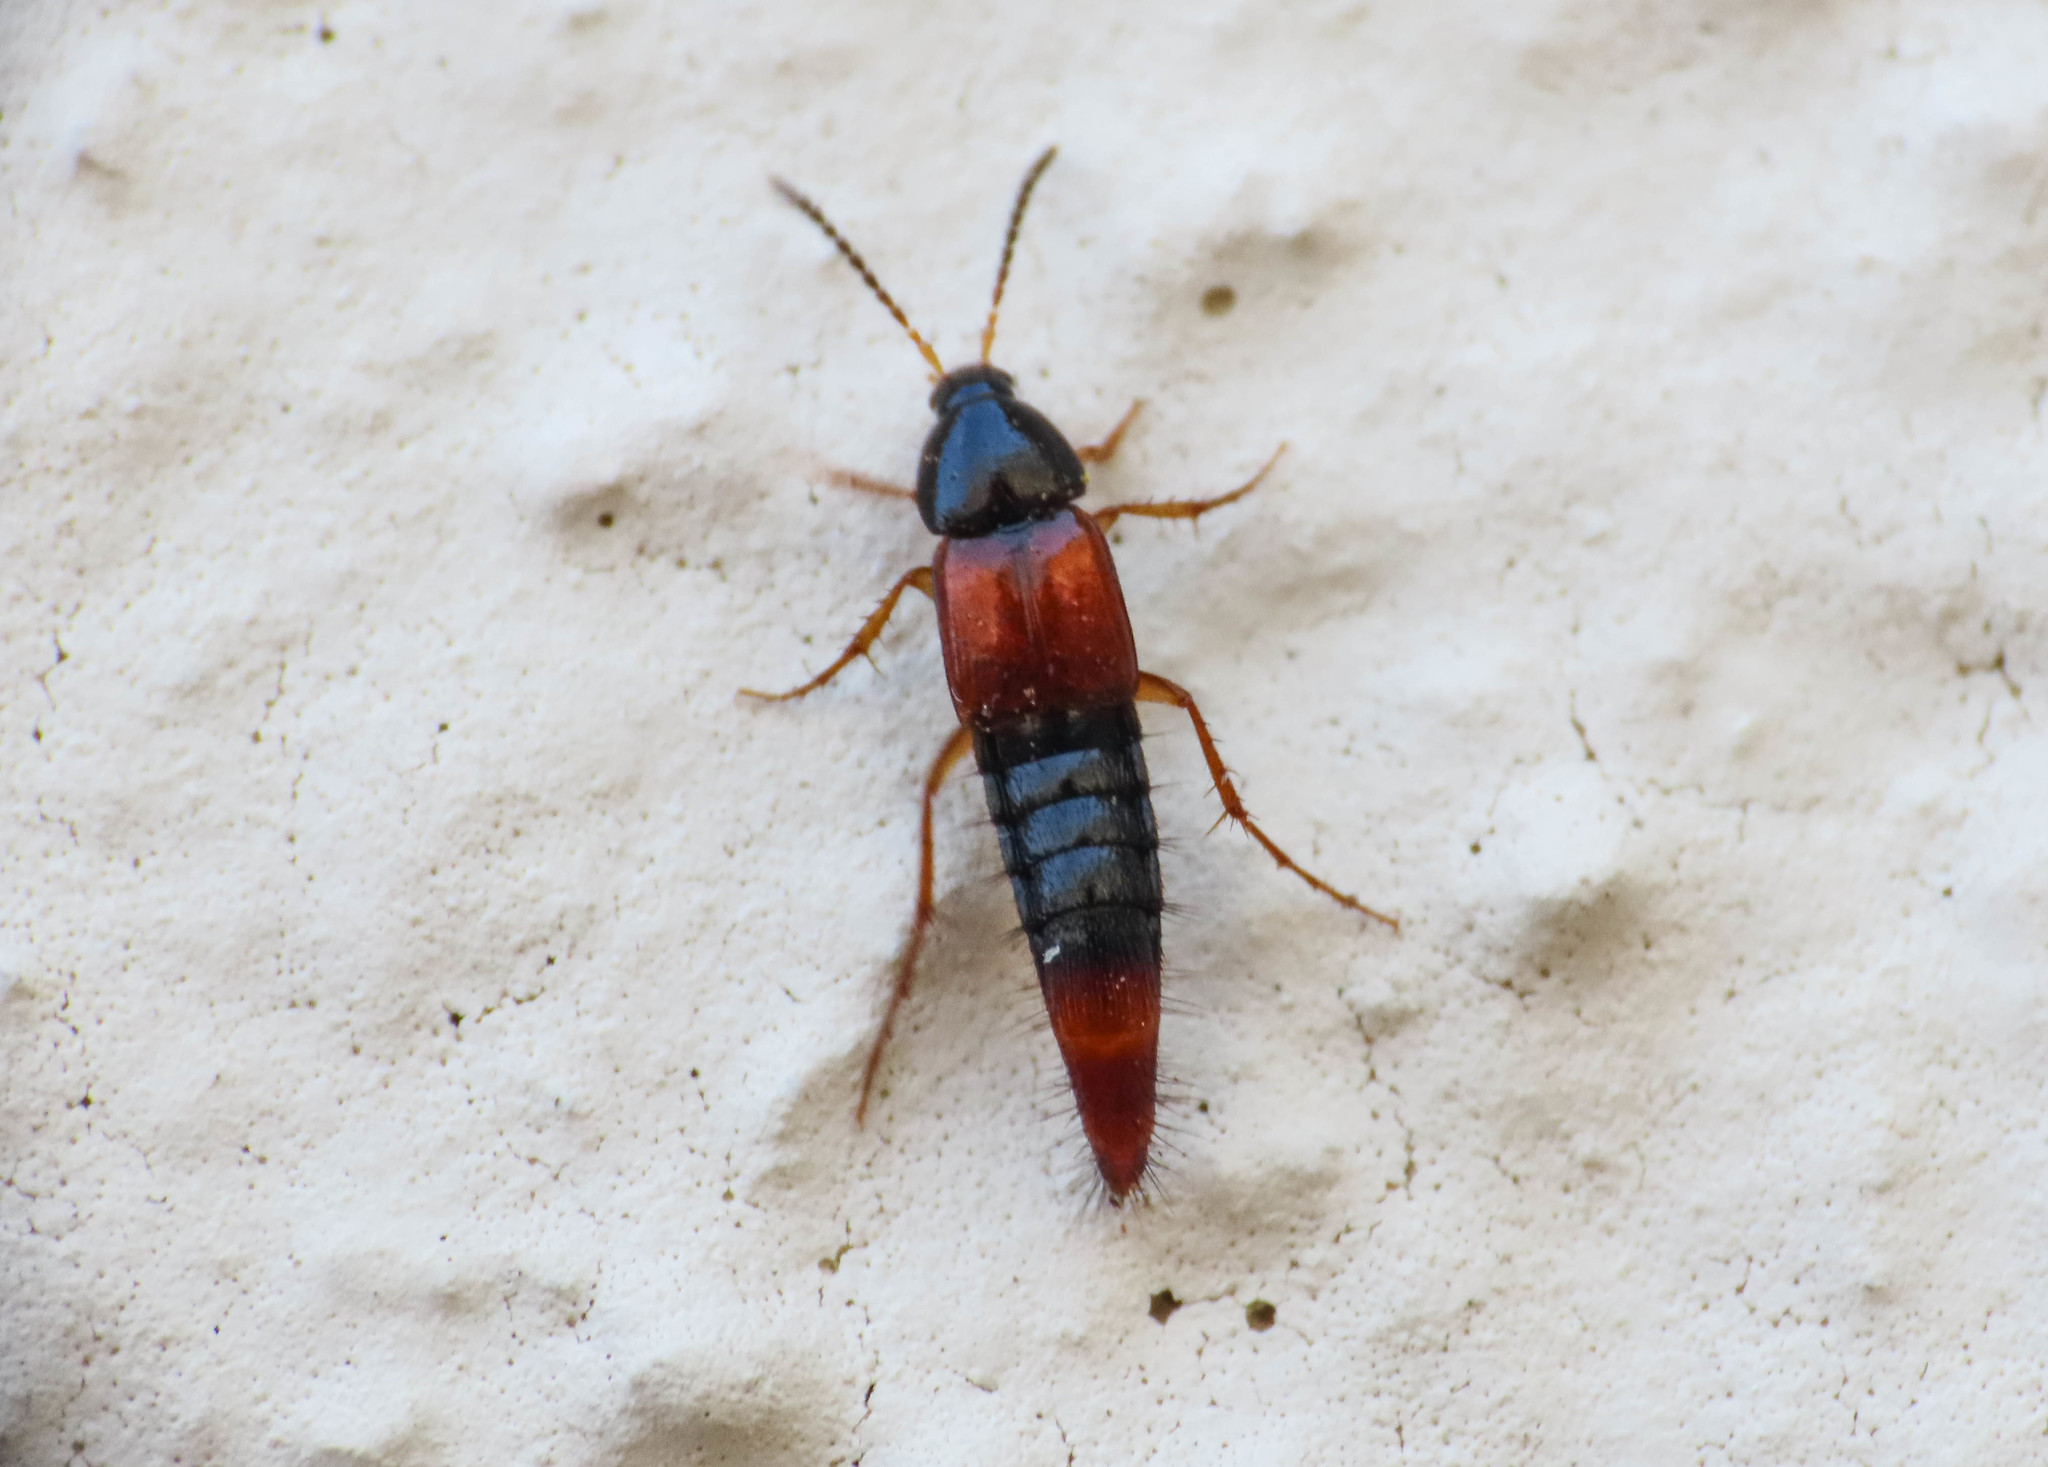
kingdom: Animalia
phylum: Arthropoda
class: Insecta
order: Coleoptera
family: Staphylinidae
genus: Bolitobius
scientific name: Bolitobius castaneus
